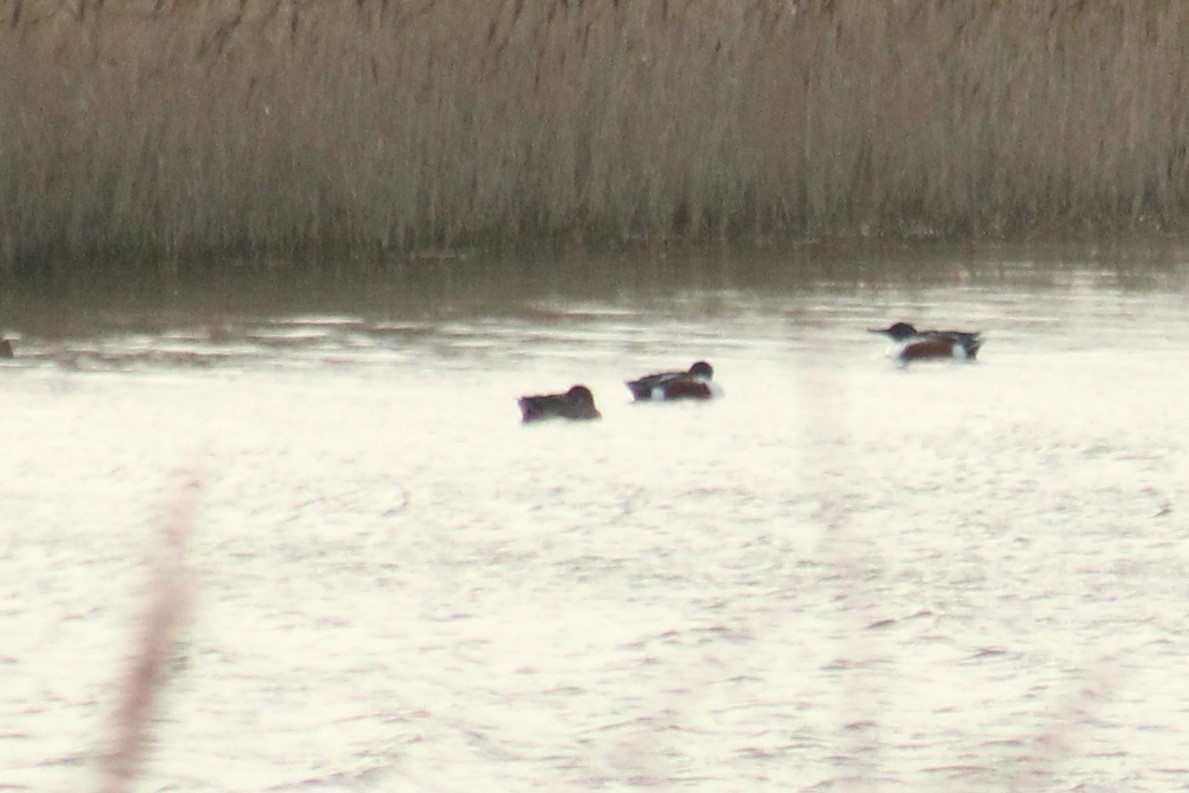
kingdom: Animalia
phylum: Chordata
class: Aves
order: Anseriformes
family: Anatidae
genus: Spatula
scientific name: Spatula clypeata
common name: Northern shoveler
